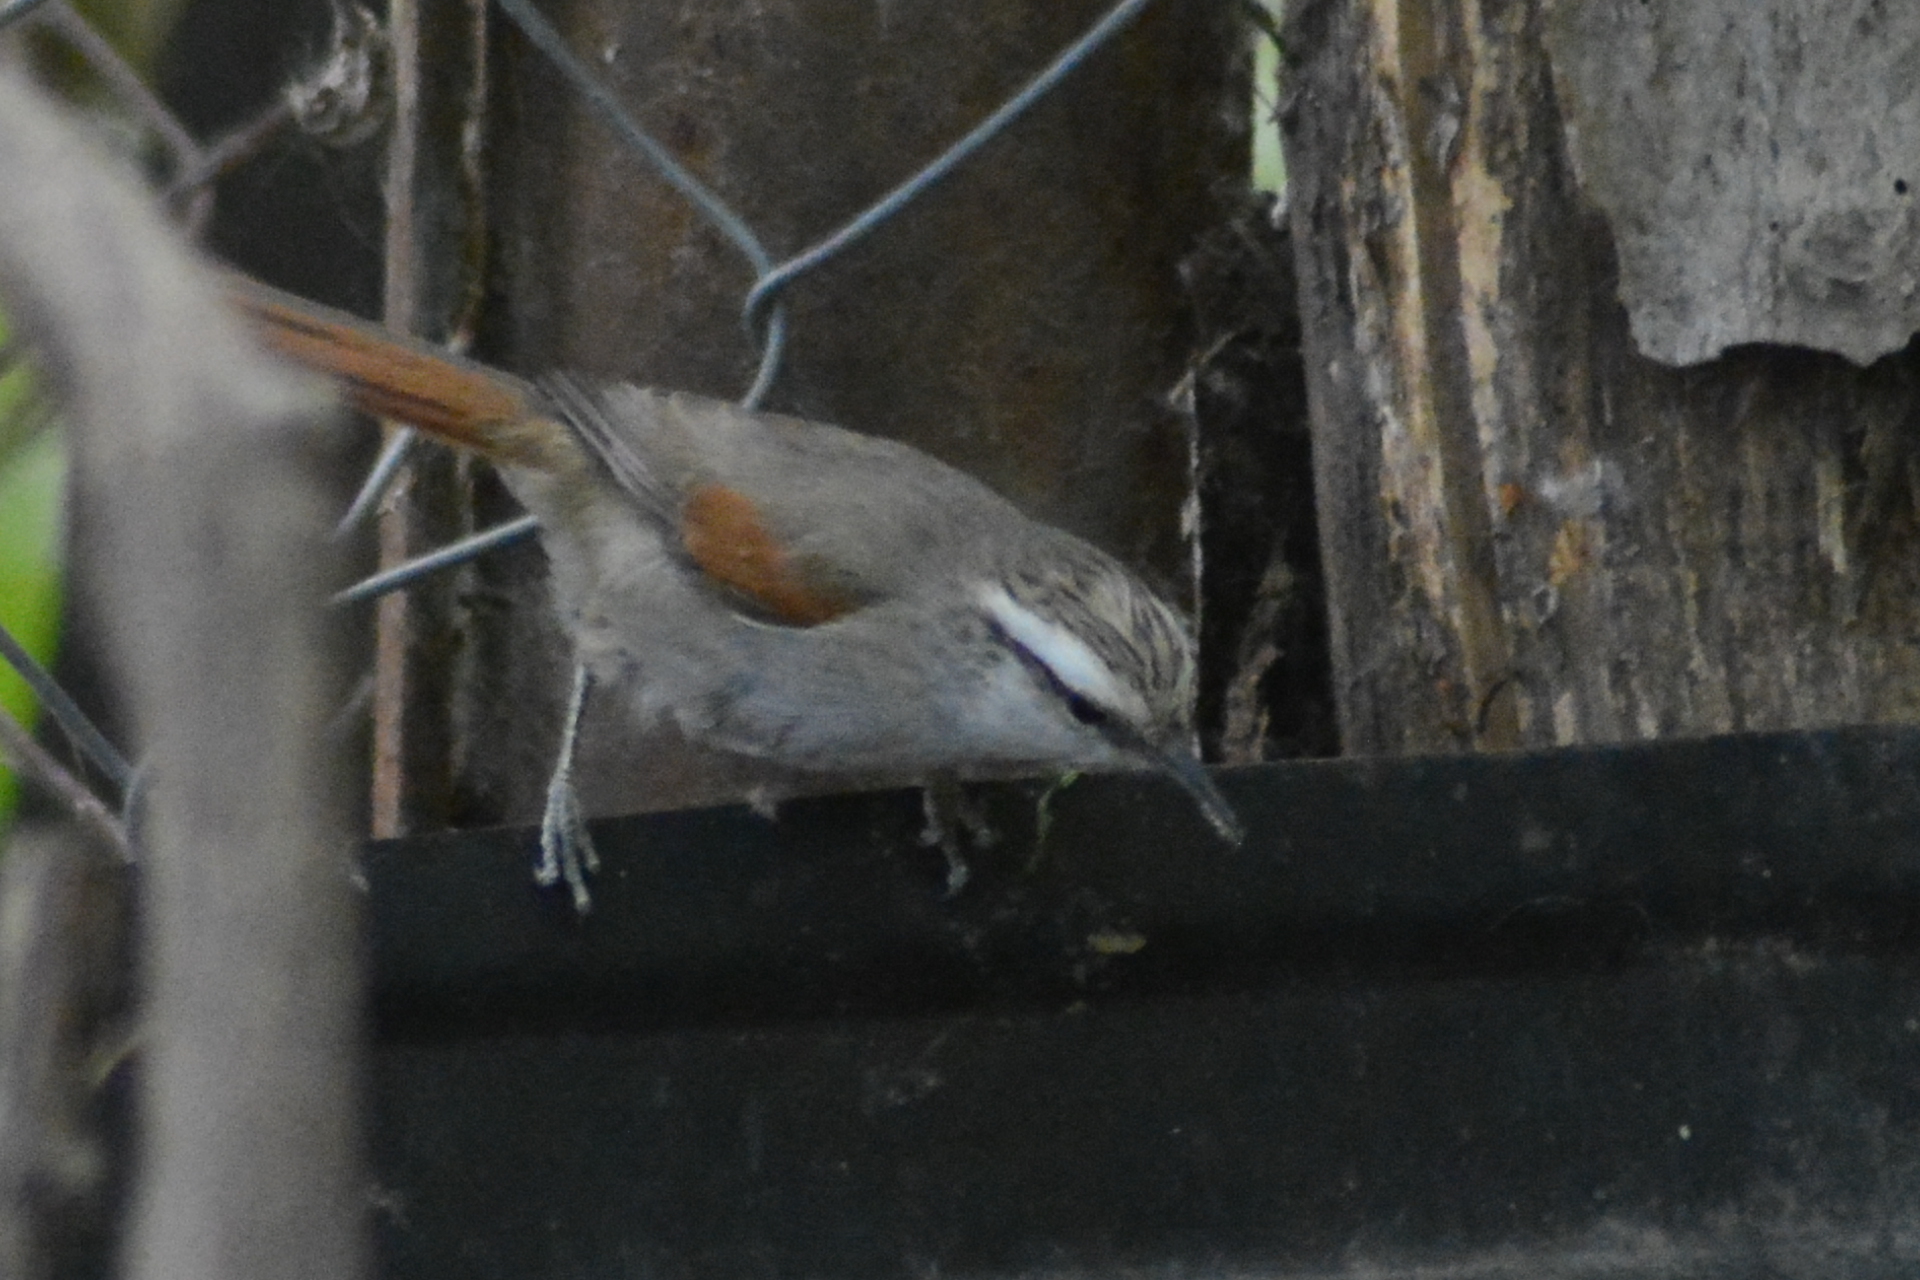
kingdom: Animalia
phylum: Chordata
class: Aves
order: Passeriformes
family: Furnariidae
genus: Cranioleuca
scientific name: Cranioleuca pyrrhophia
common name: Stripe-crowned spinetail
